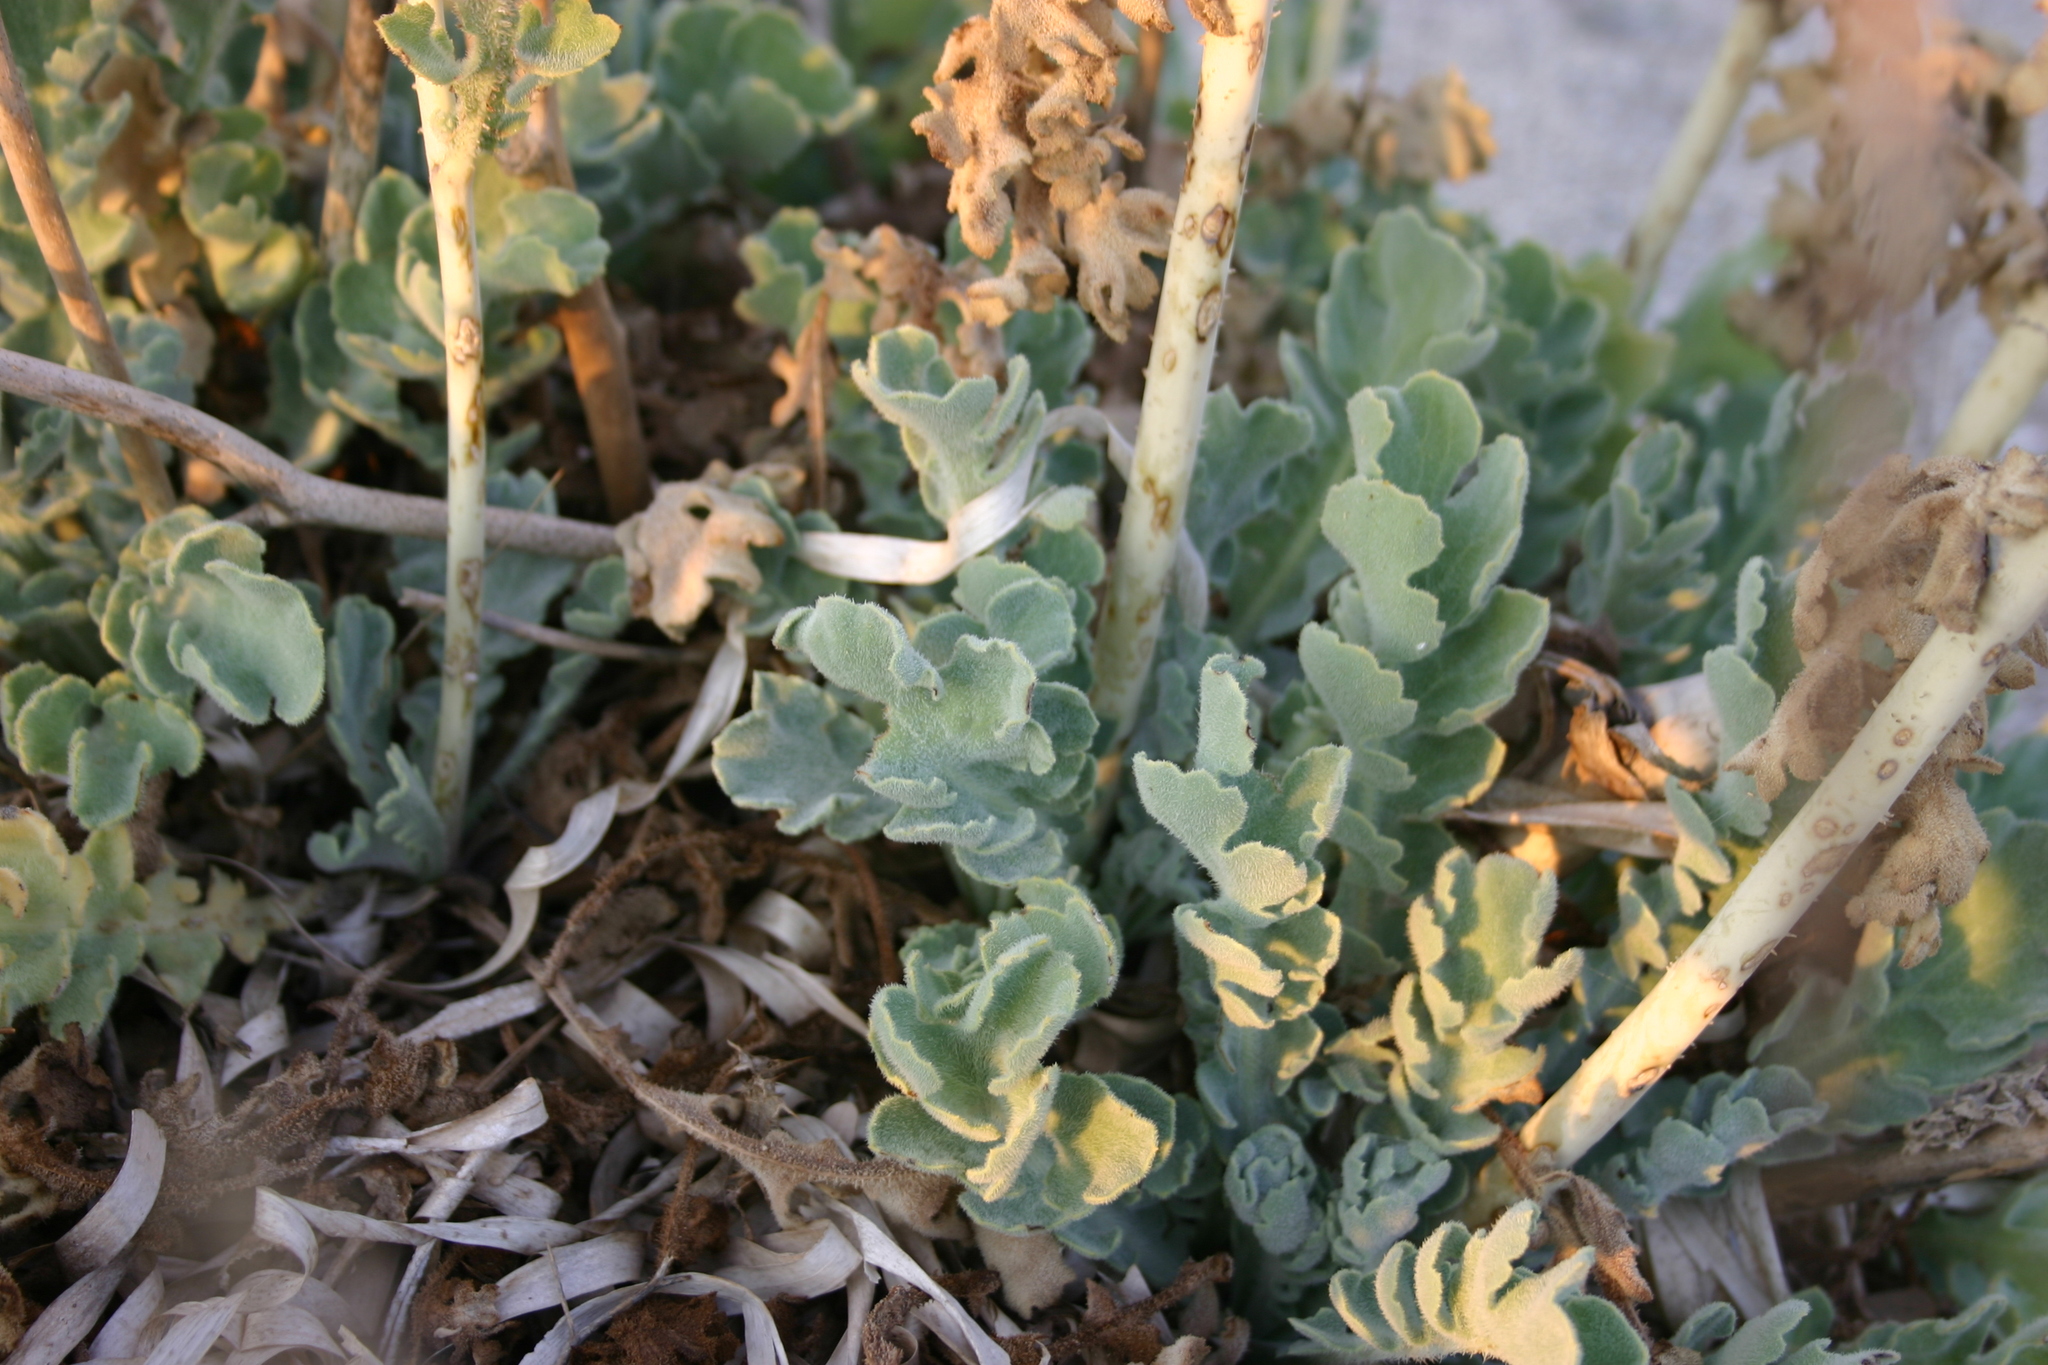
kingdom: Plantae
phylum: Tracheophyta
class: Magnoliopsida
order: Ranunculales
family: Papaveraceae
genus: Glaucium
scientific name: Glaucium flavum
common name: Yellow horned-poppy
